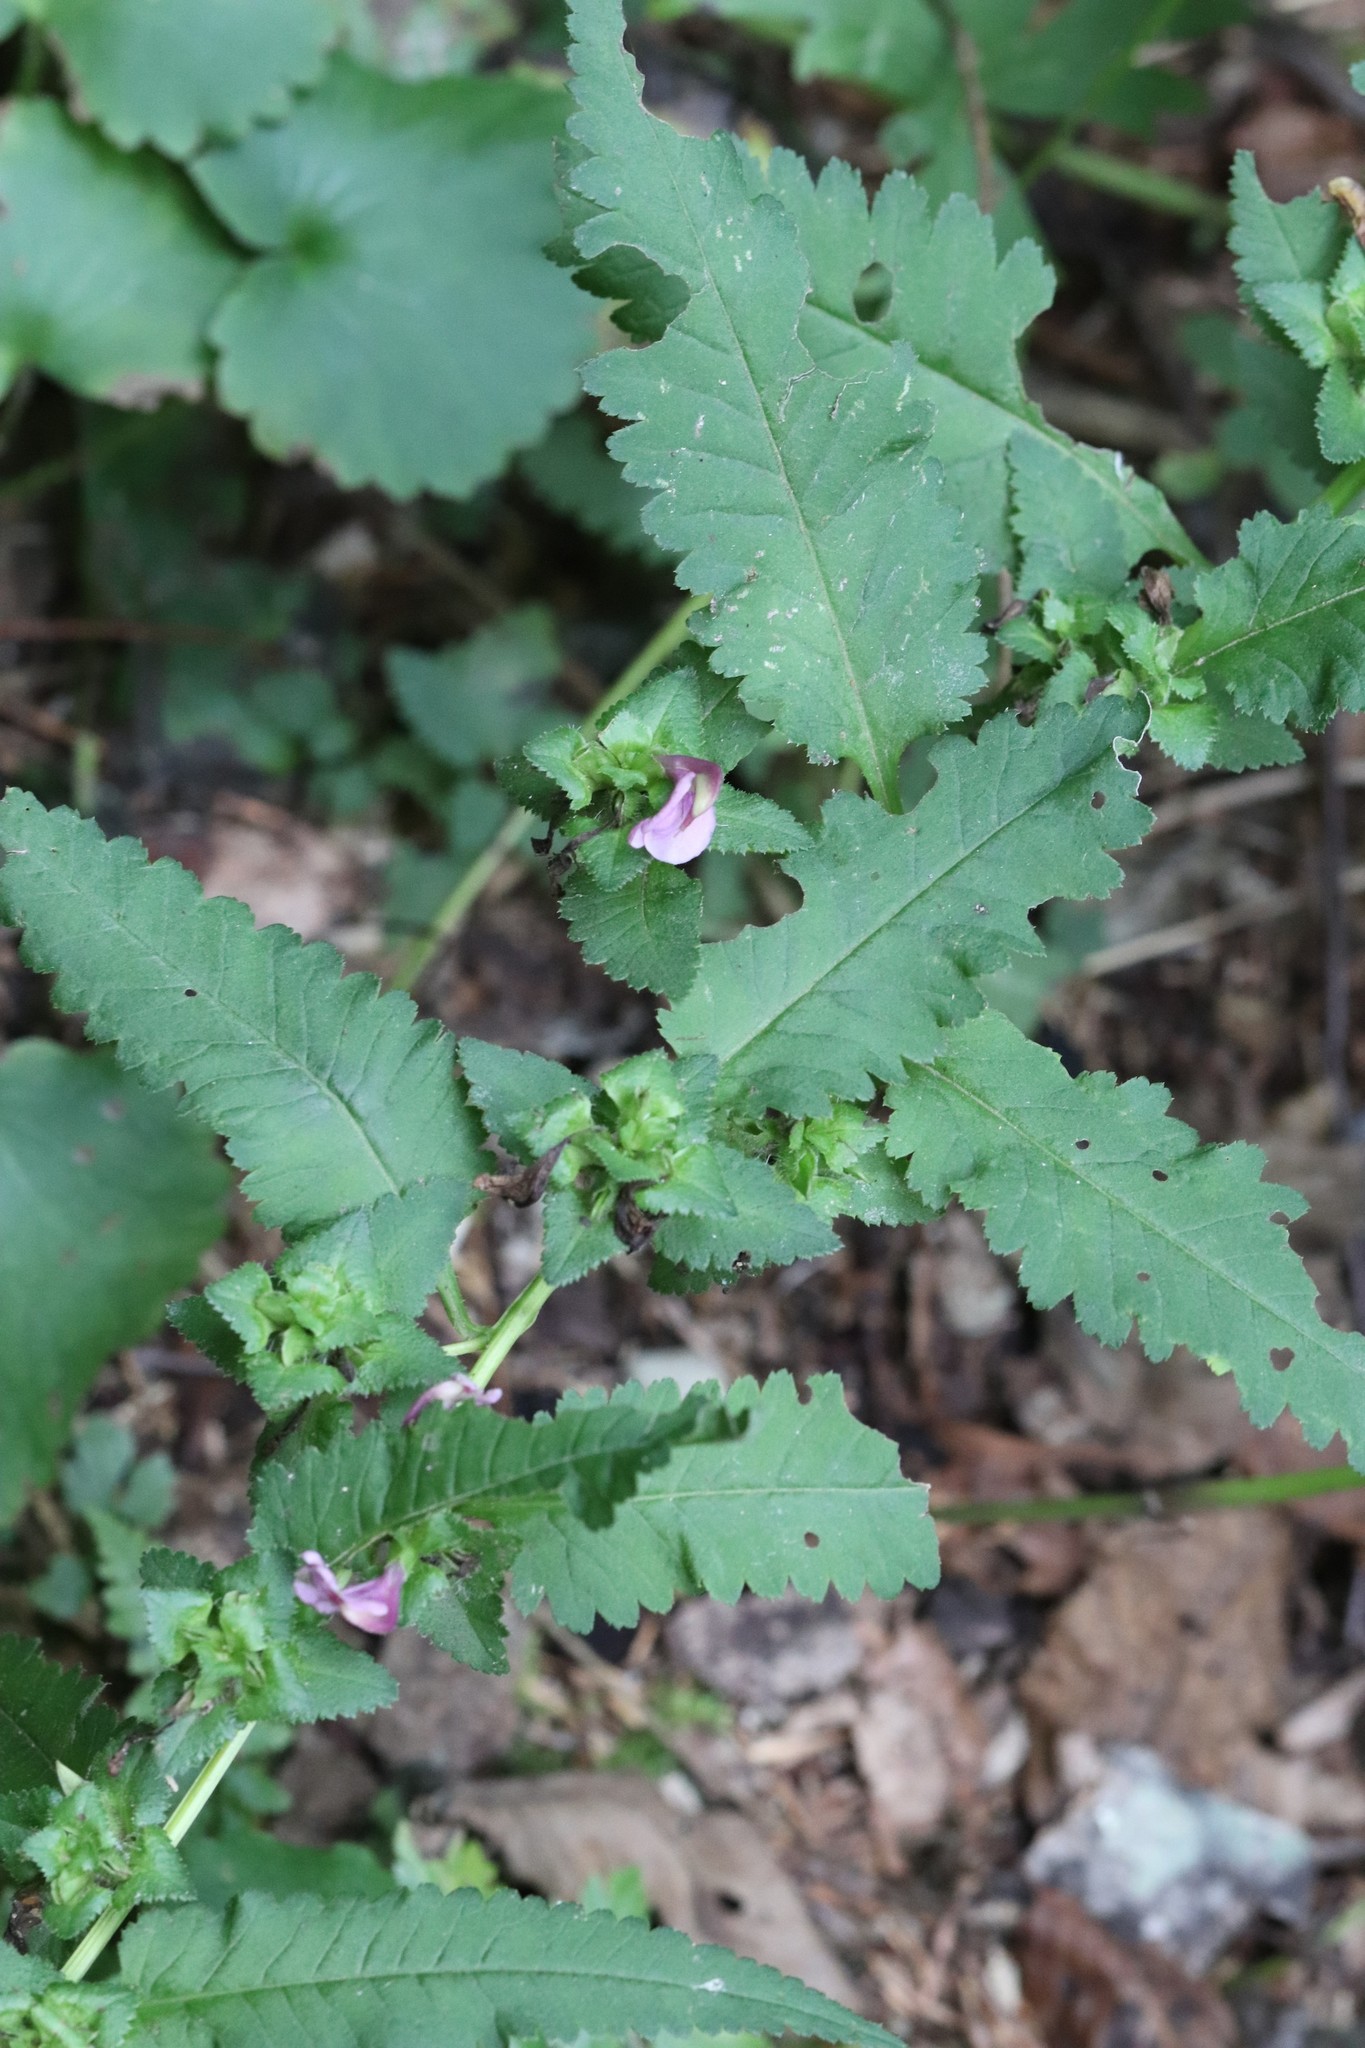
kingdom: Plantae
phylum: Tracheophyta
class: Magnoliopsida
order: Lamiales
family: Orobanchaceae
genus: Pedicularis
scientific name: Pedicularis resupinata
